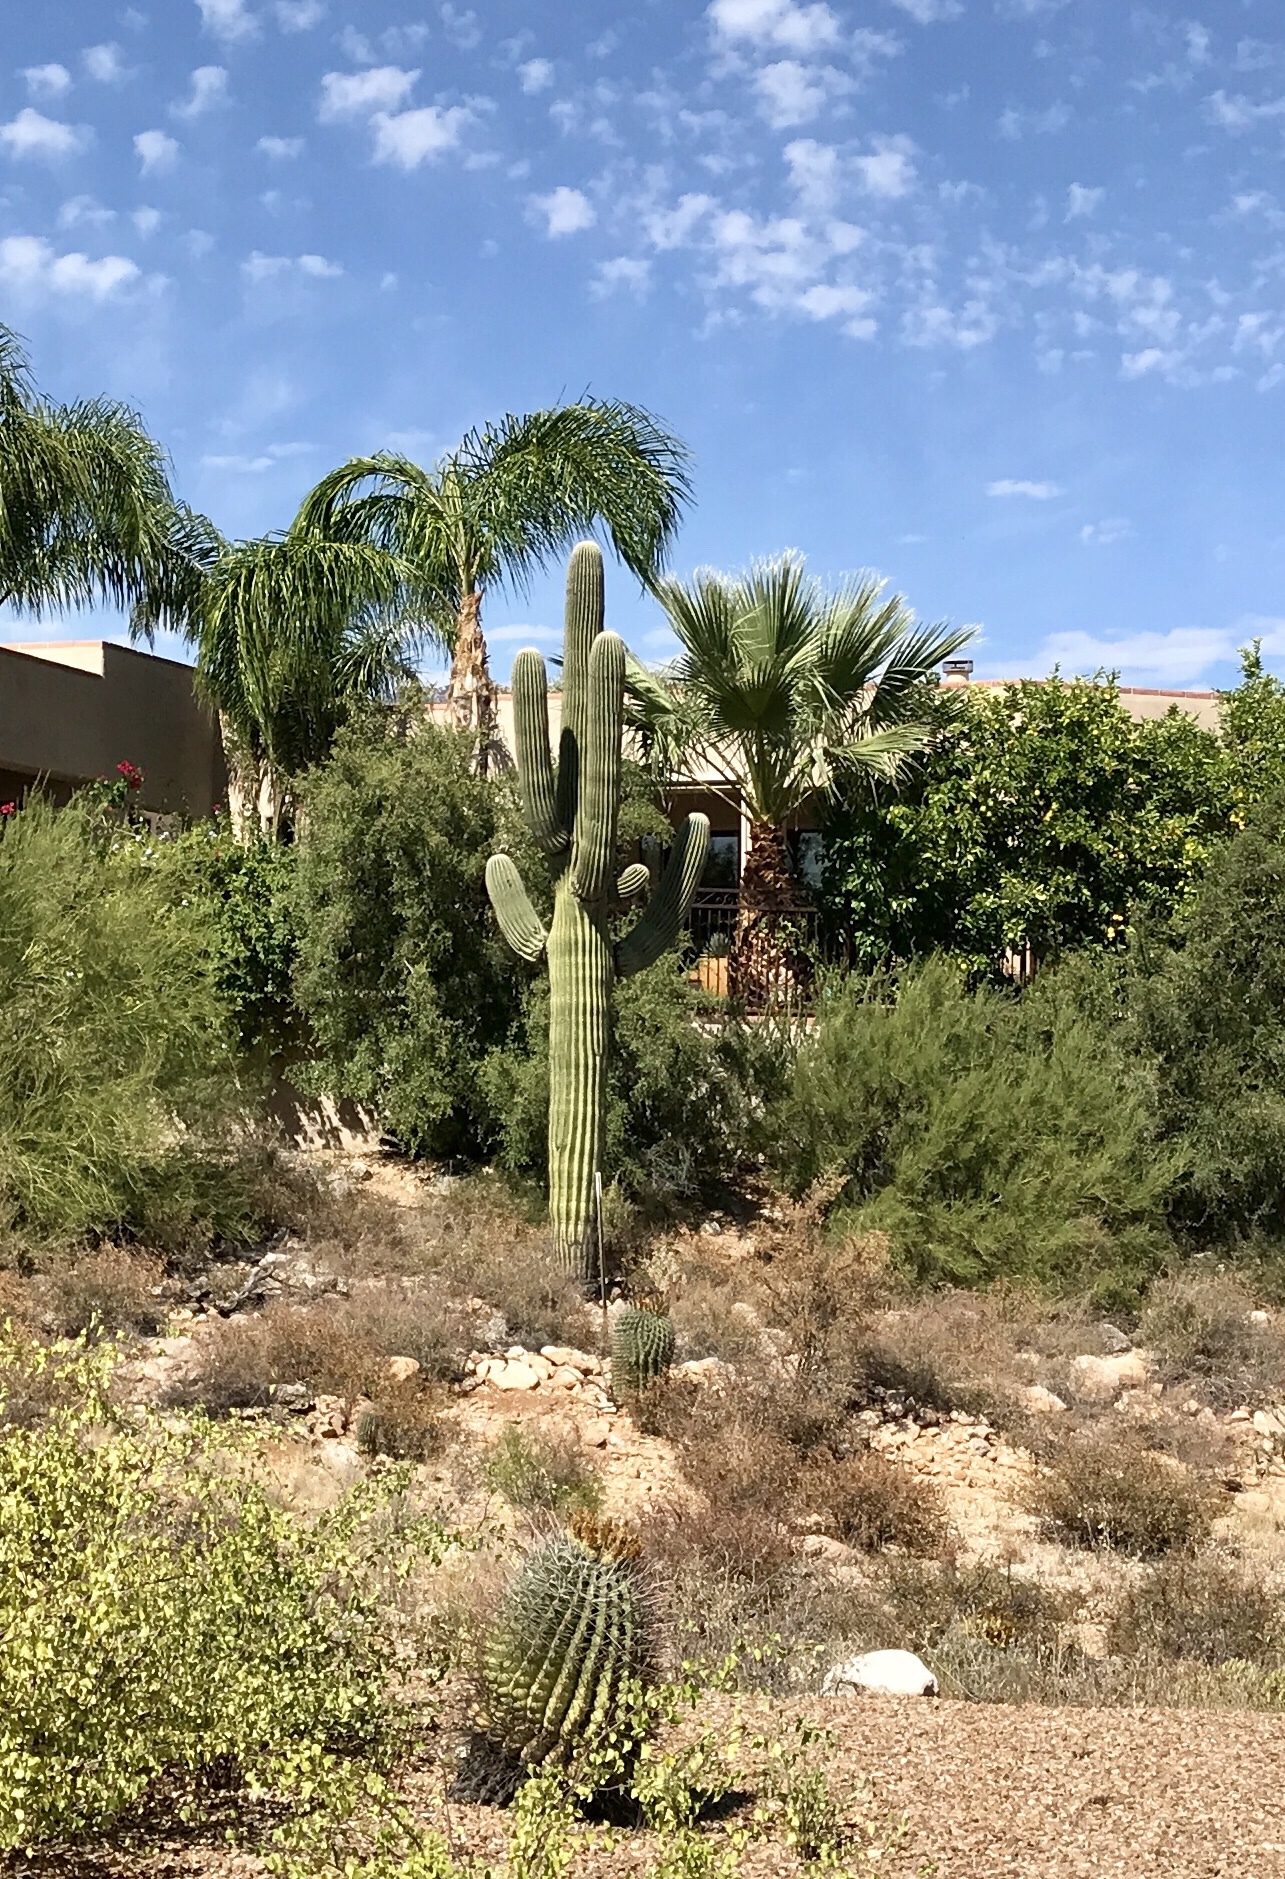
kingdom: Plantae
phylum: Tracheophyta
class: Magnoliopsida
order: Caryophyllales
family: Cactaceae
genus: Carnegiea
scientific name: Carnegiea gigantea
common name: Saguaro
